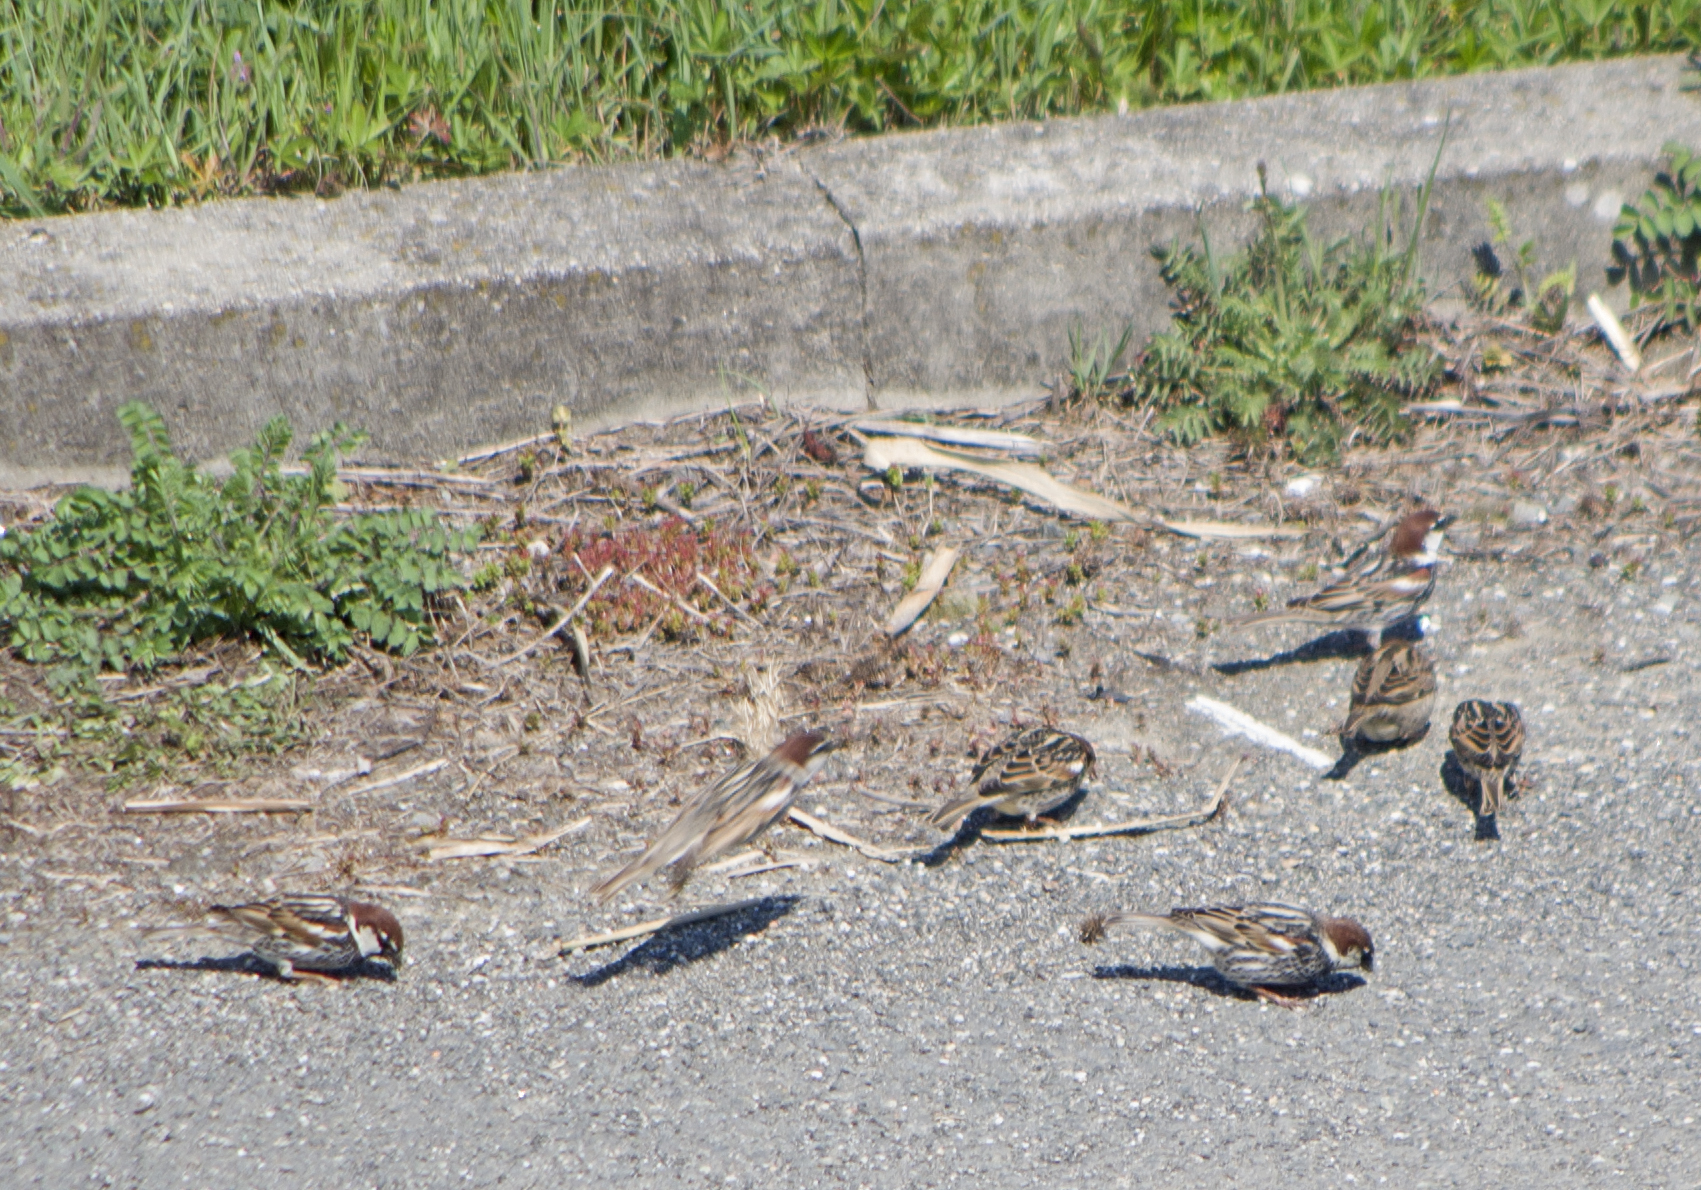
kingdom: Animalia
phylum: Chordata
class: Aves
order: Passeriformes
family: Passeridae
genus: Passer
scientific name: Passer hispaniolensis
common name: Spanish sparrow
